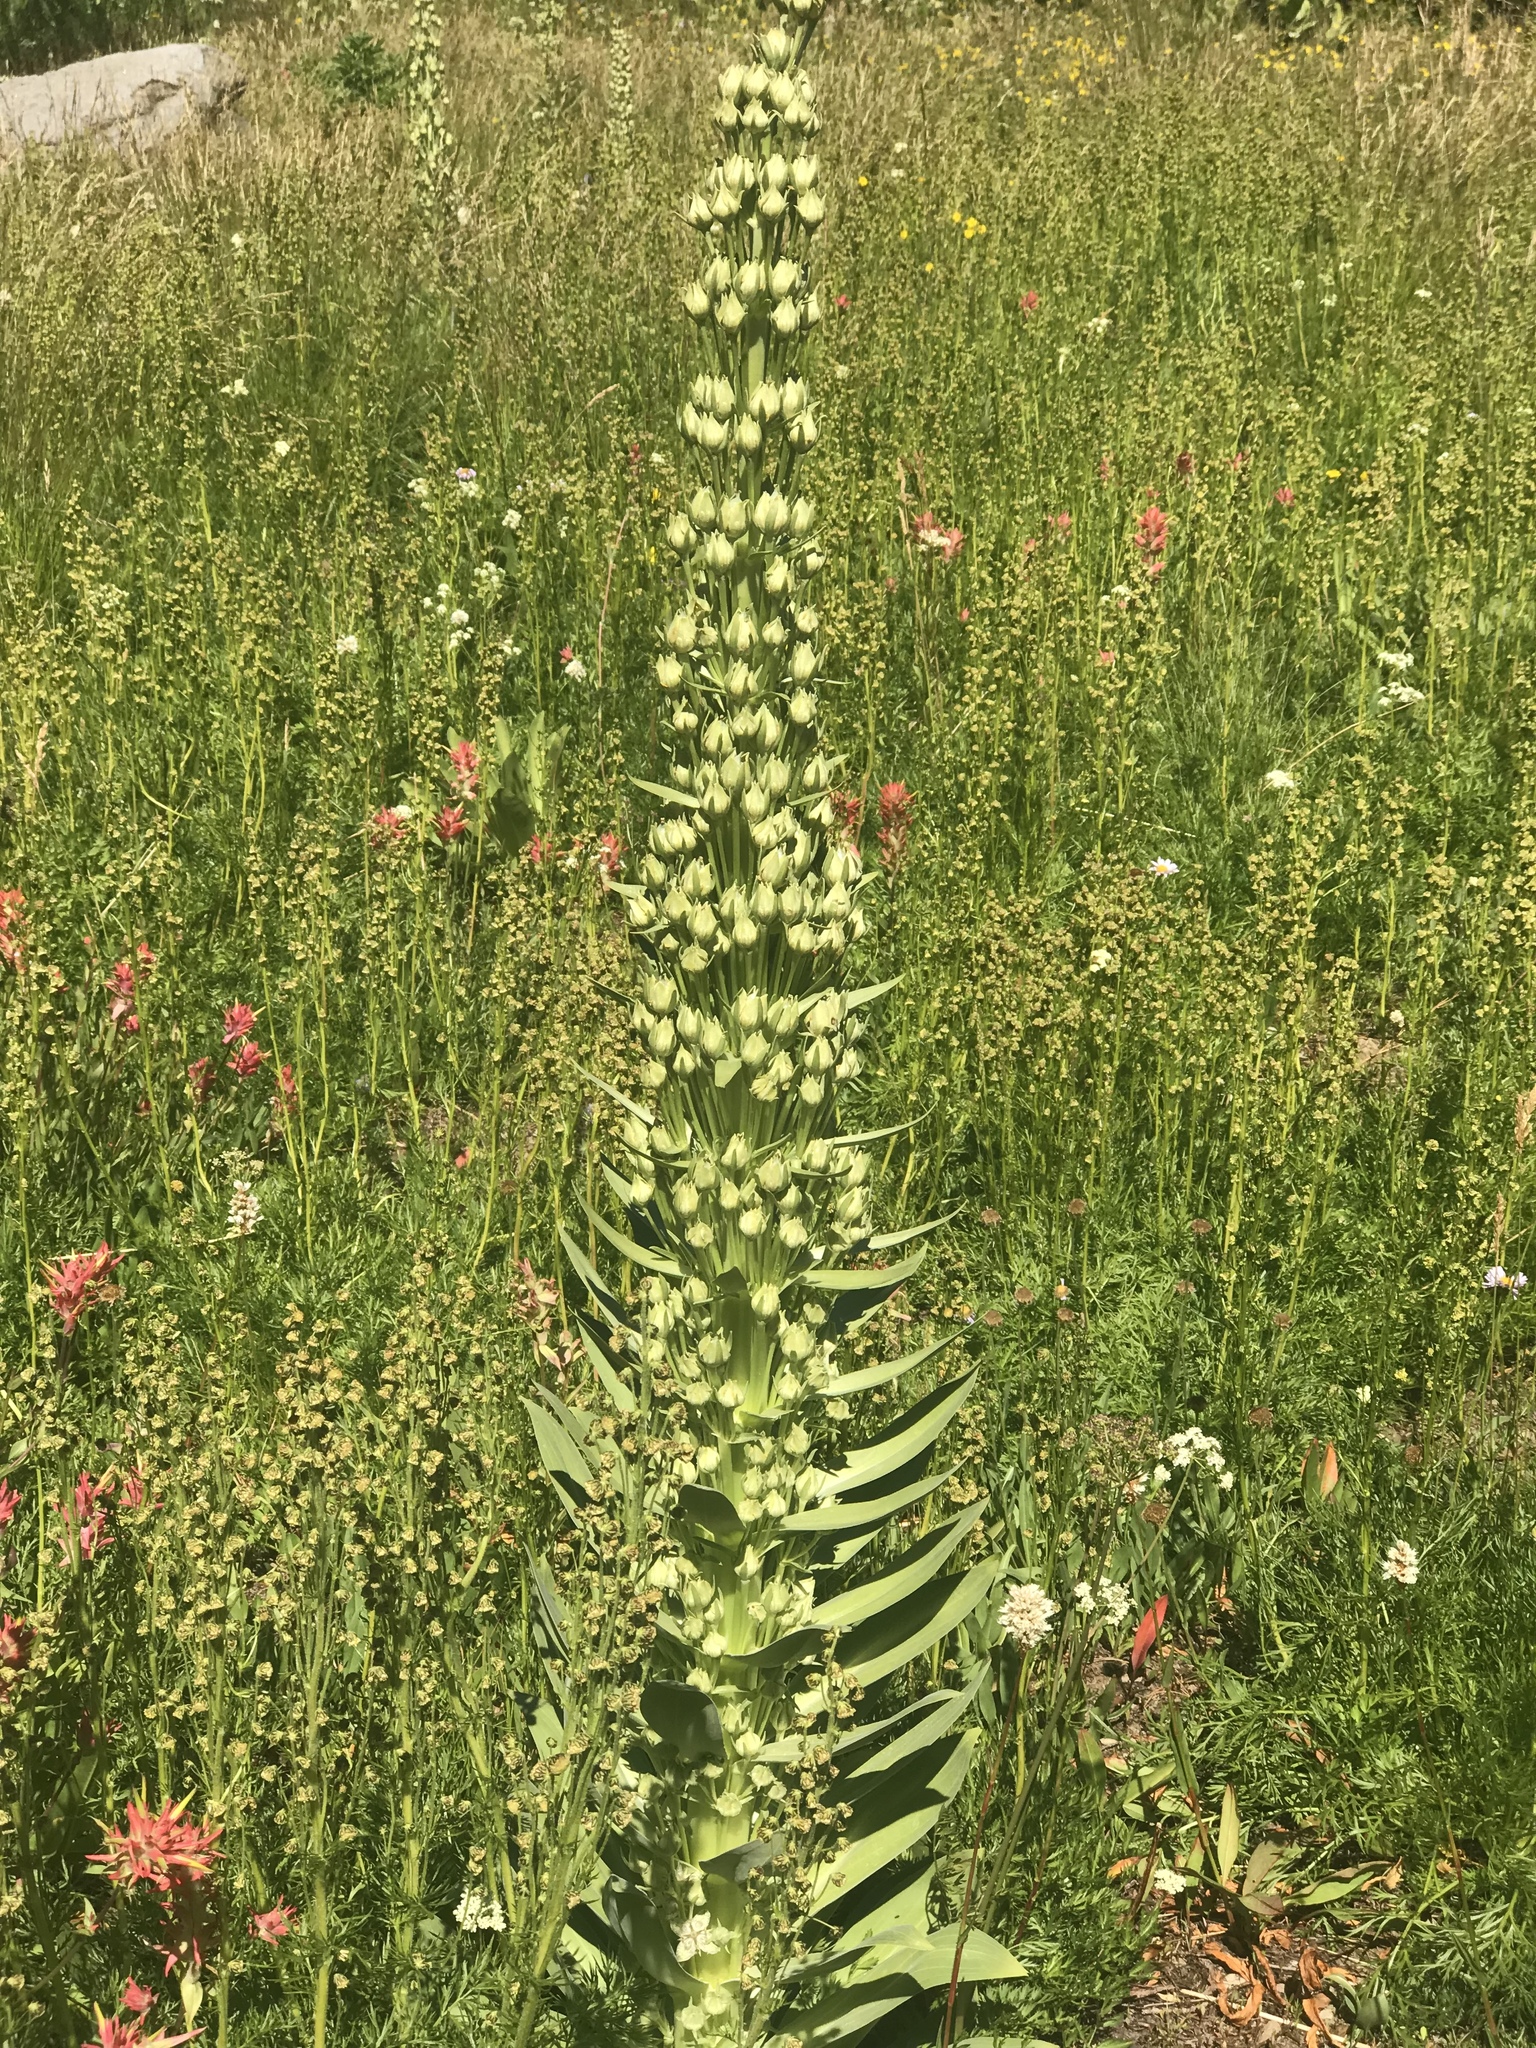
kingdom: Plantae
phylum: Tracheophyta
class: Magnoliopsida
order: Gentianales
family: Gentianaceae
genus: Frasera
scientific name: Frasera speciosa
